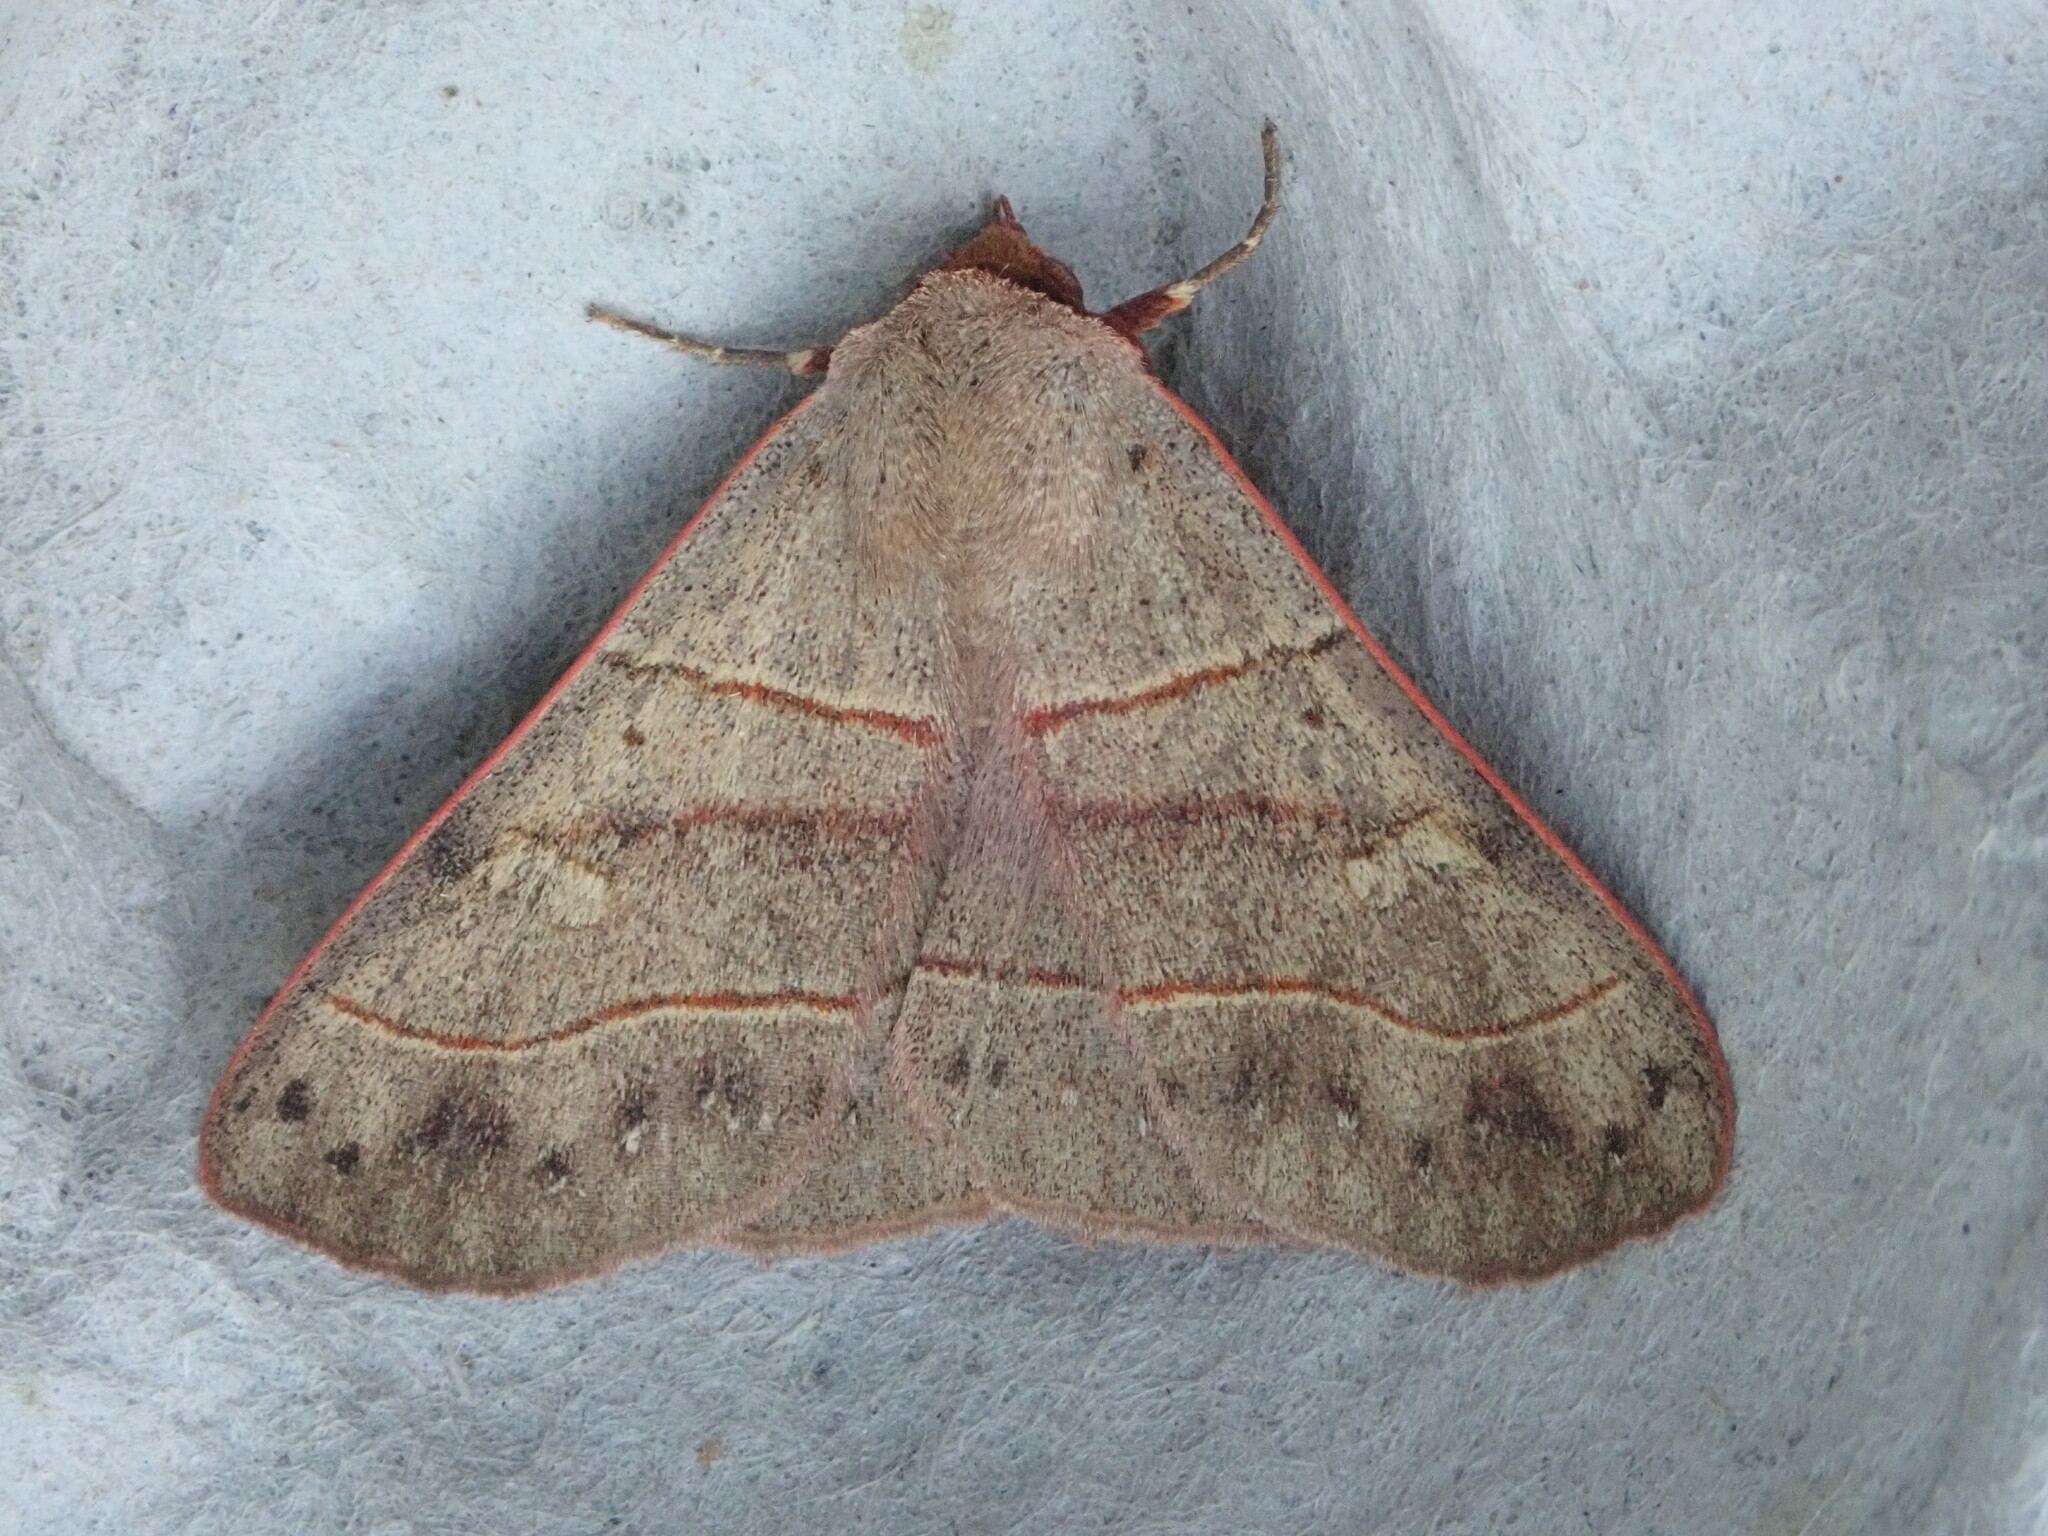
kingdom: Animalia
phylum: Arthropoda
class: Insecta
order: Lepidoptera
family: Erebidae
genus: Panopoda
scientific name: Panopoda rufimargo
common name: Red-lined panopoda moth
